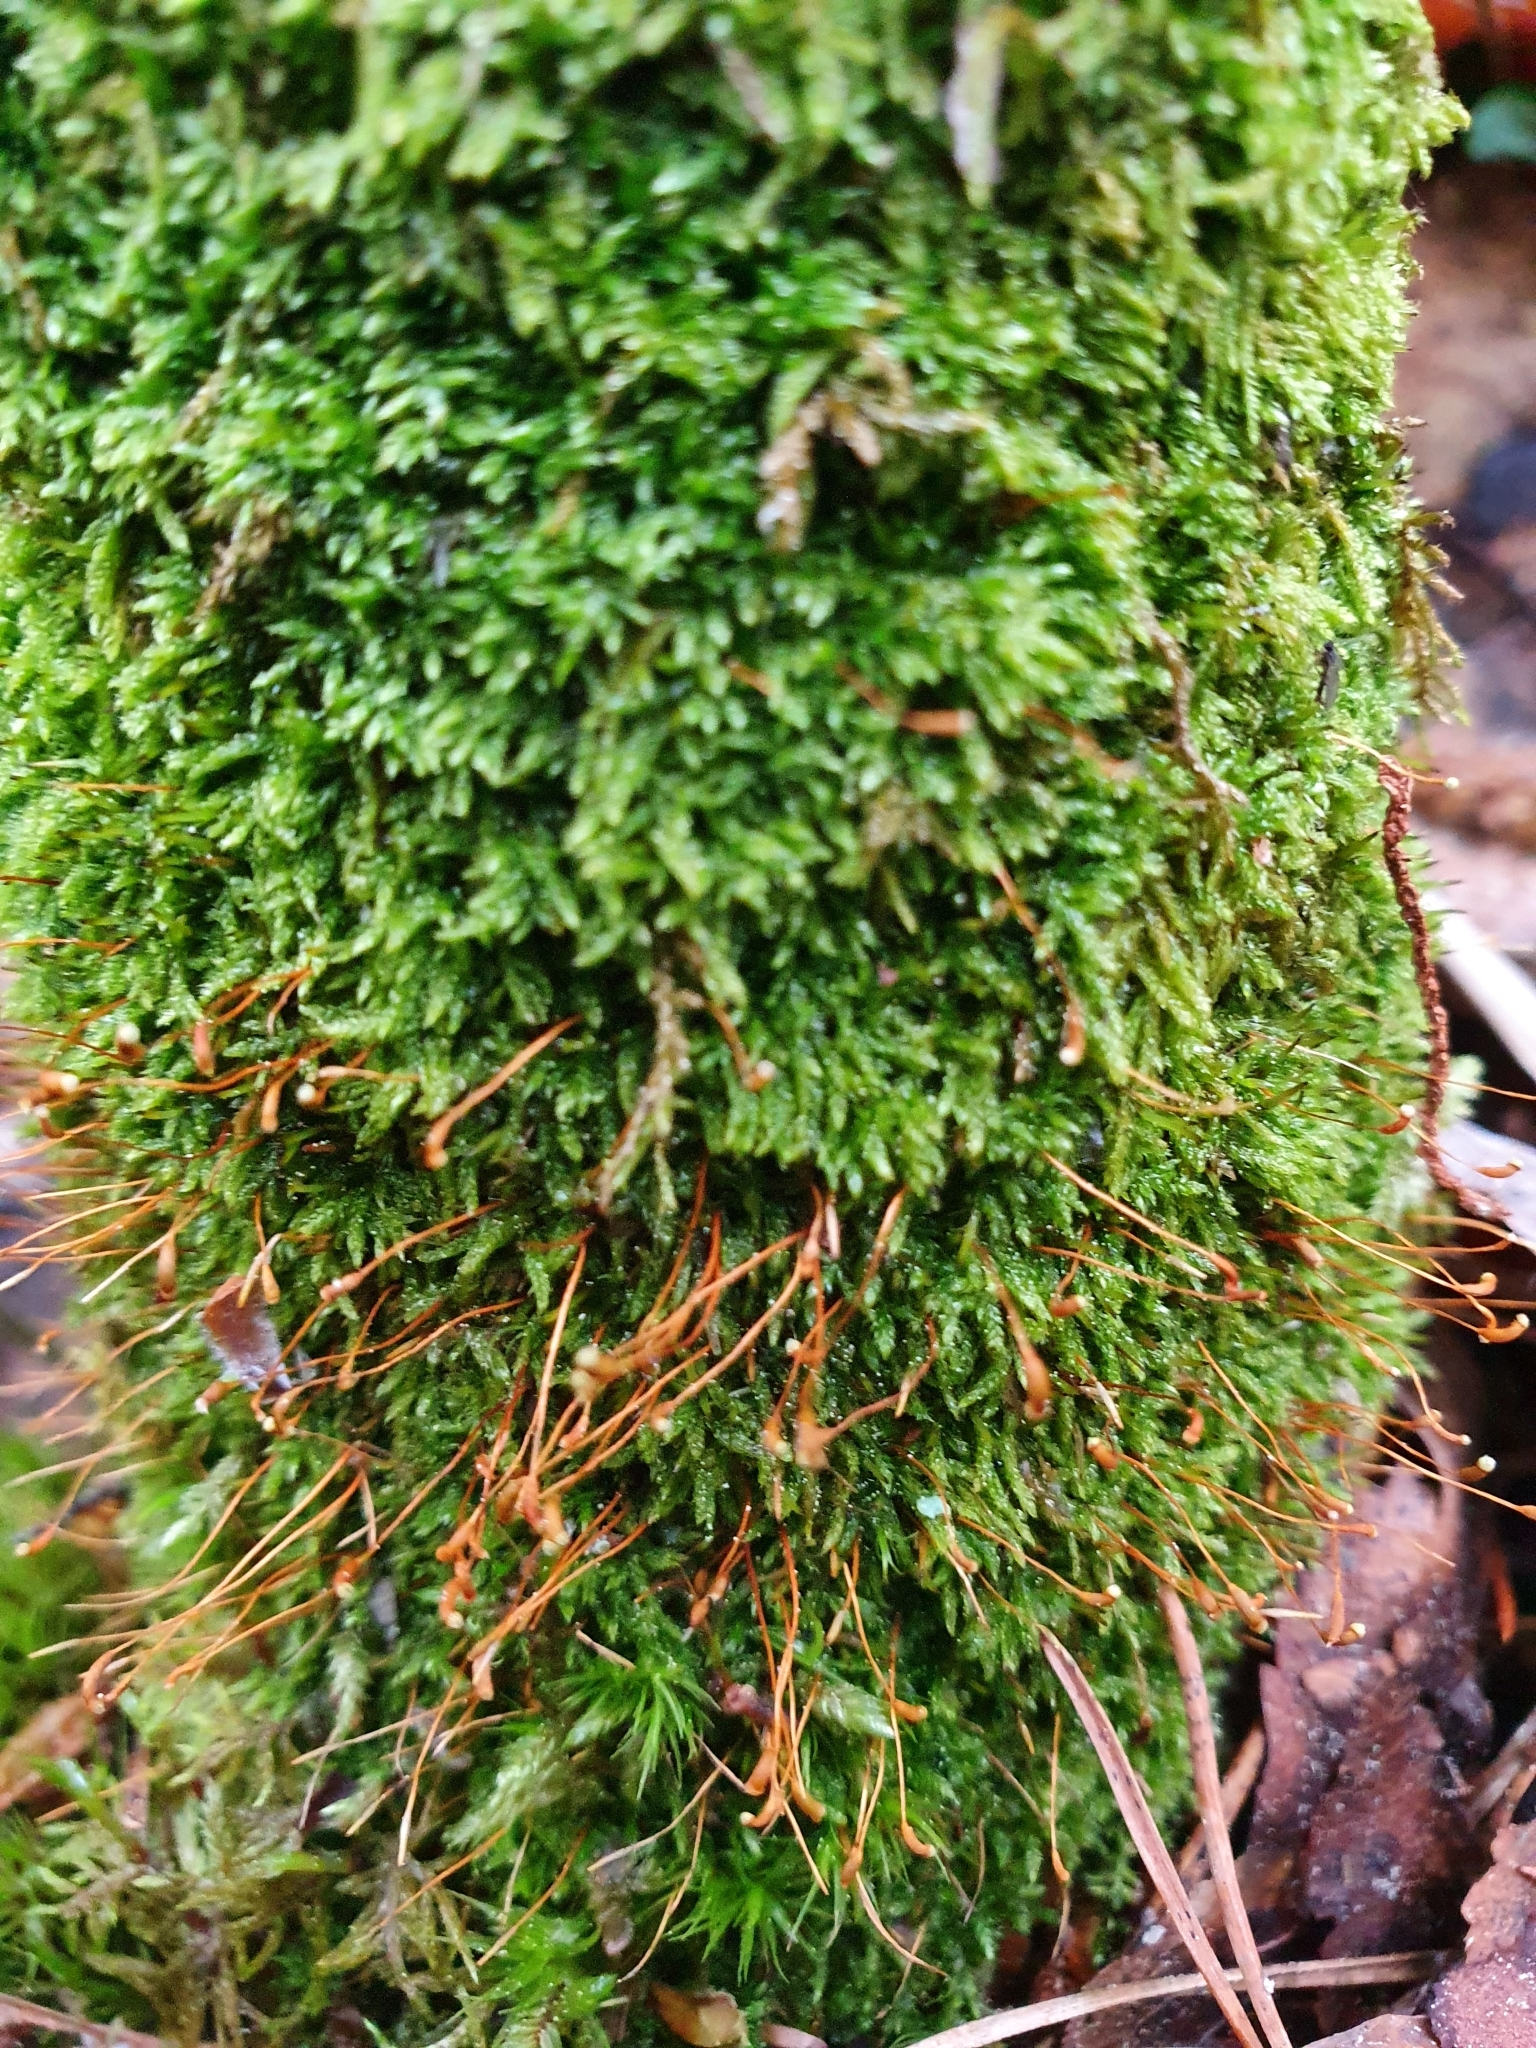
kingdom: Plantae
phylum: Bryophyta
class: Bryopsida
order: Hypnales
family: Hypnaceae
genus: Hypnum
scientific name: Hypnum cupressiforme
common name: Cypress-leaved plait-moss
